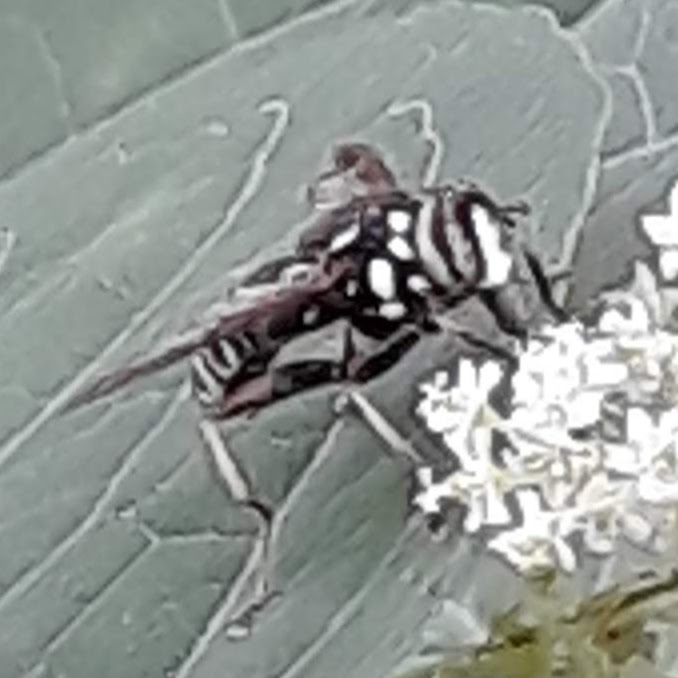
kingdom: Animalia
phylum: Arthropoda
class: Insecta
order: Diptera
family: Syrphidae
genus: Spilomyia
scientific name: Spilomyia fusca
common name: Bald-faced hornet fly
